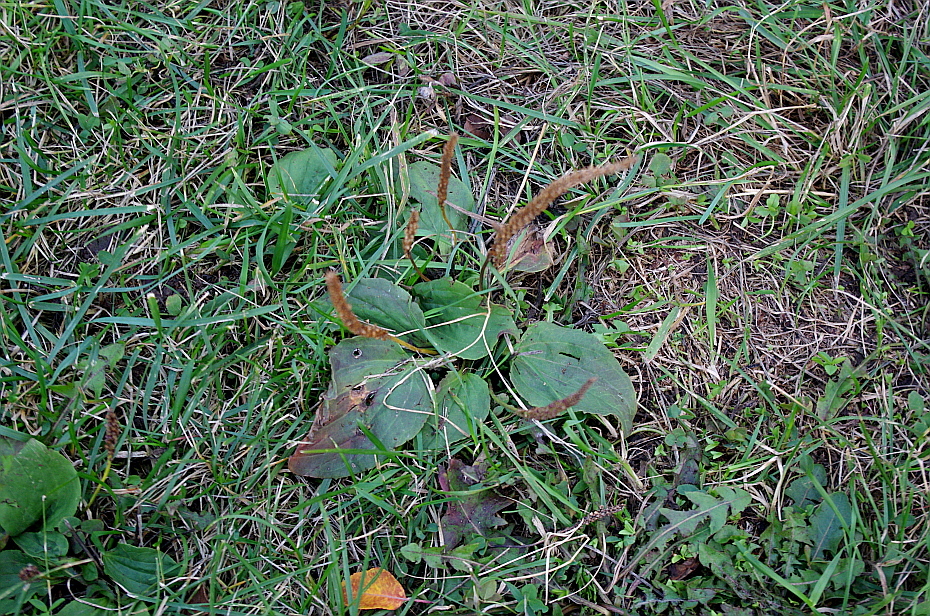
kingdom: Plantae
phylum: Tracheophyta
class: Magnoliopsida
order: Lamiales
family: Plantaginaceae
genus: Plantago
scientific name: Plantago major
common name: Common plantain
